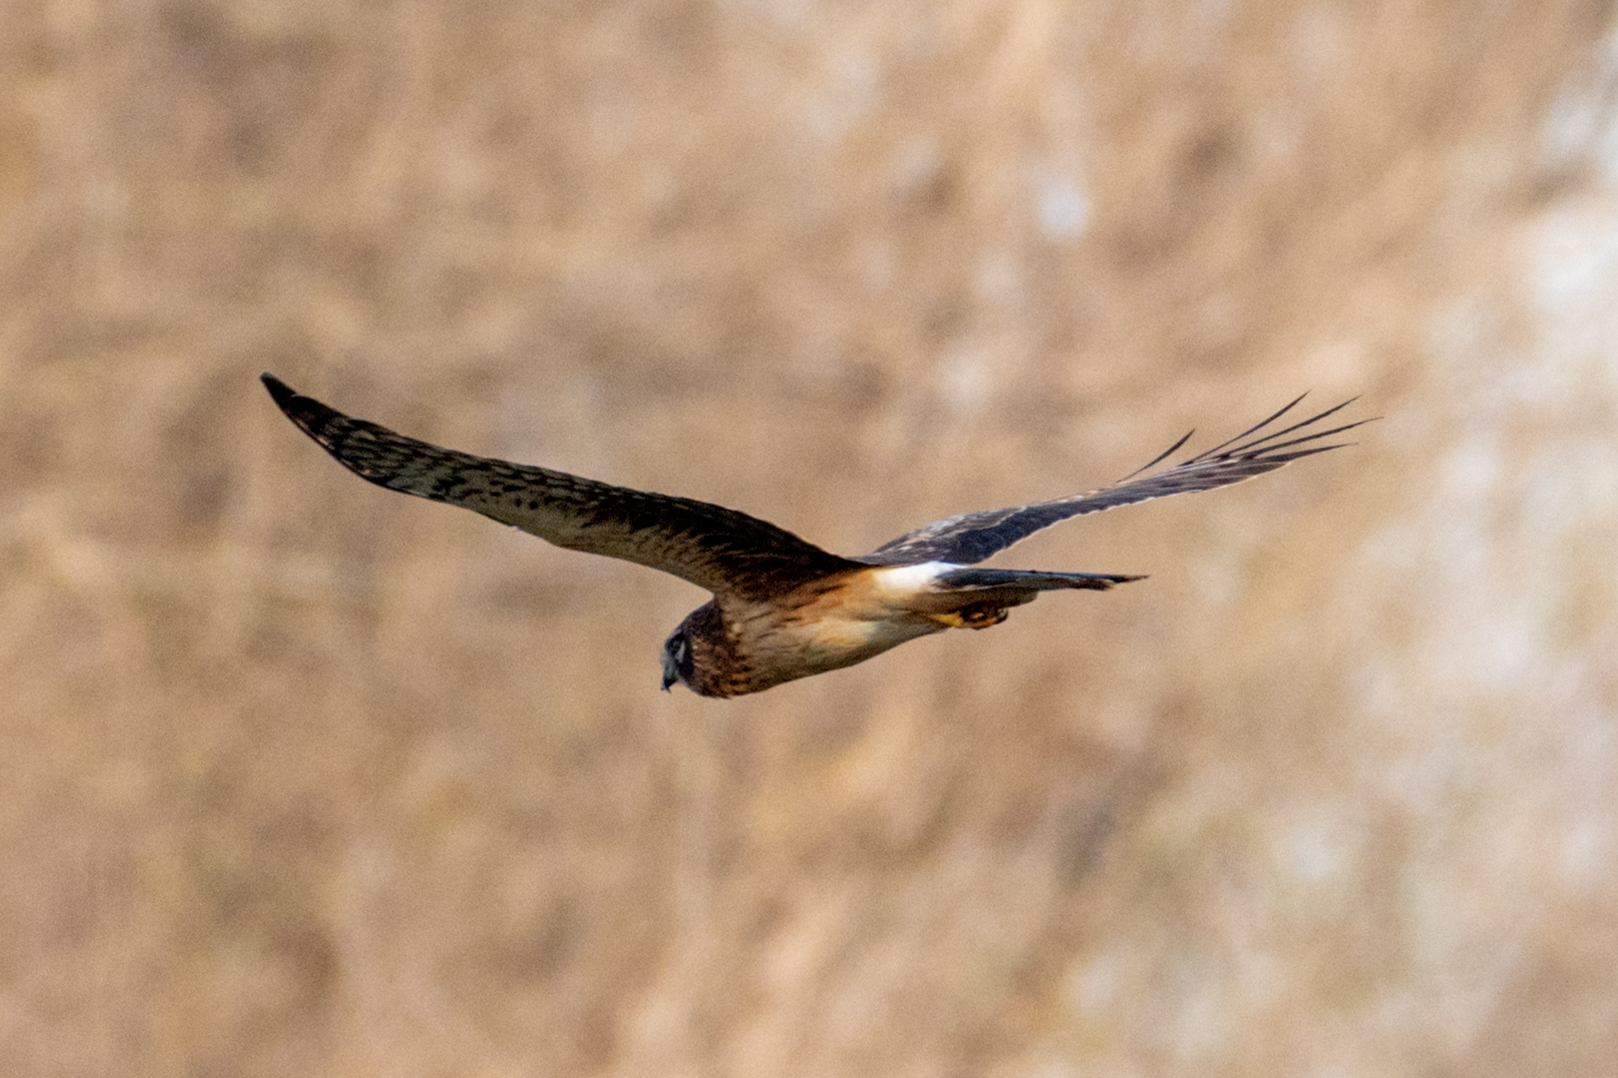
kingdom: Animalia
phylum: Chordata
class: Aves
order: Accipitriformes
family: Accipitridae
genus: Circus
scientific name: Circus cyaneus
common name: Hen harrier
